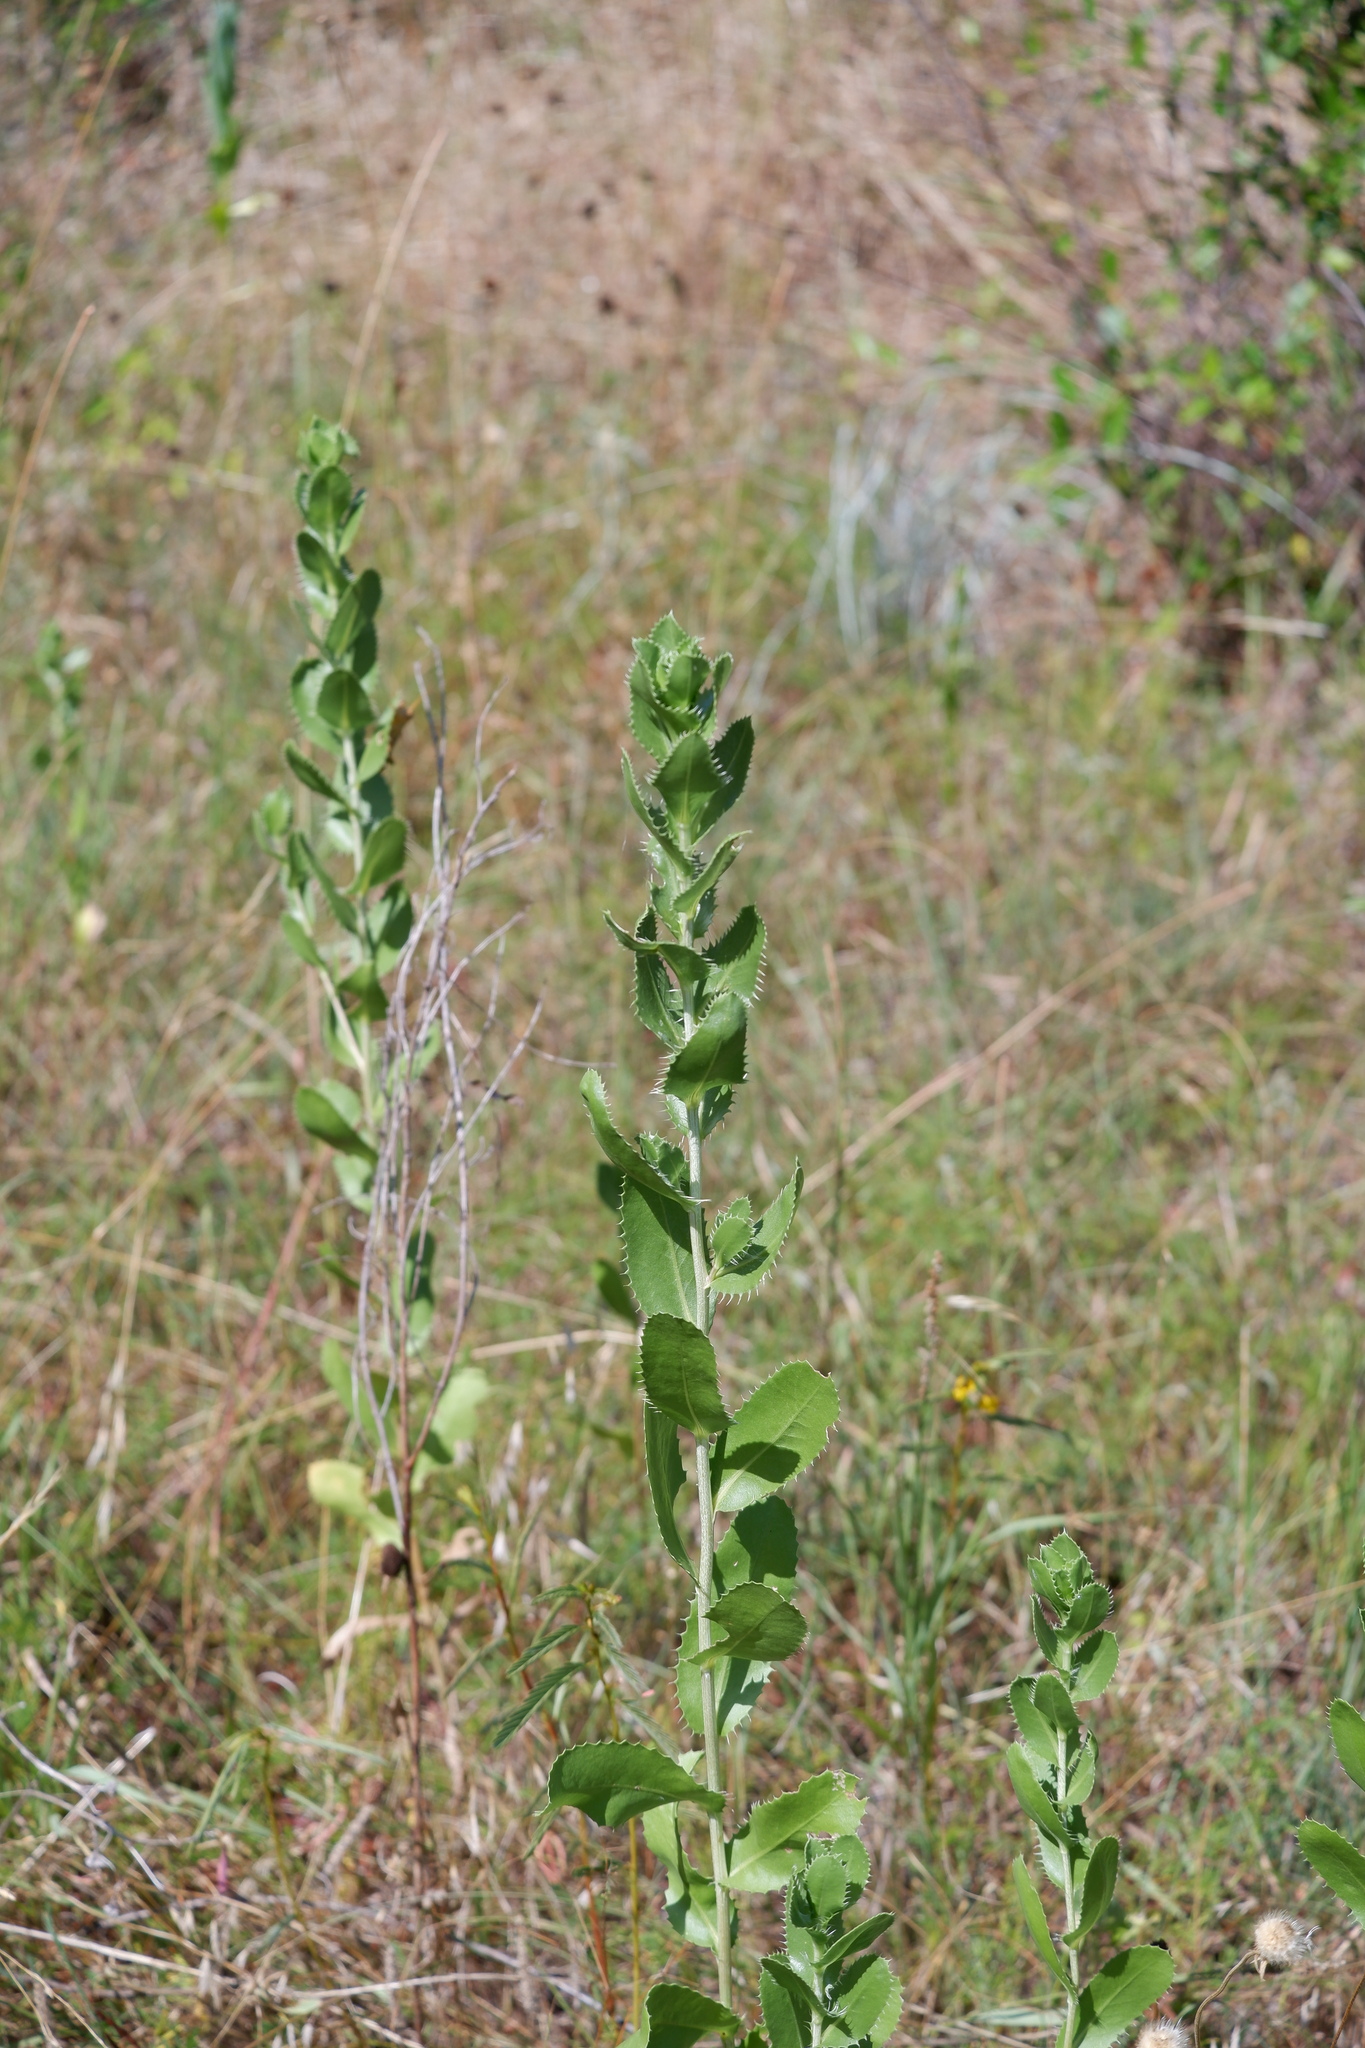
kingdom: Plantae
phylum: Tracheophyta
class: Magnoliopsida
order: Asterales
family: Asteraceae
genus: Grindelia
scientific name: Grindelia ciliata
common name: Goldenweed
